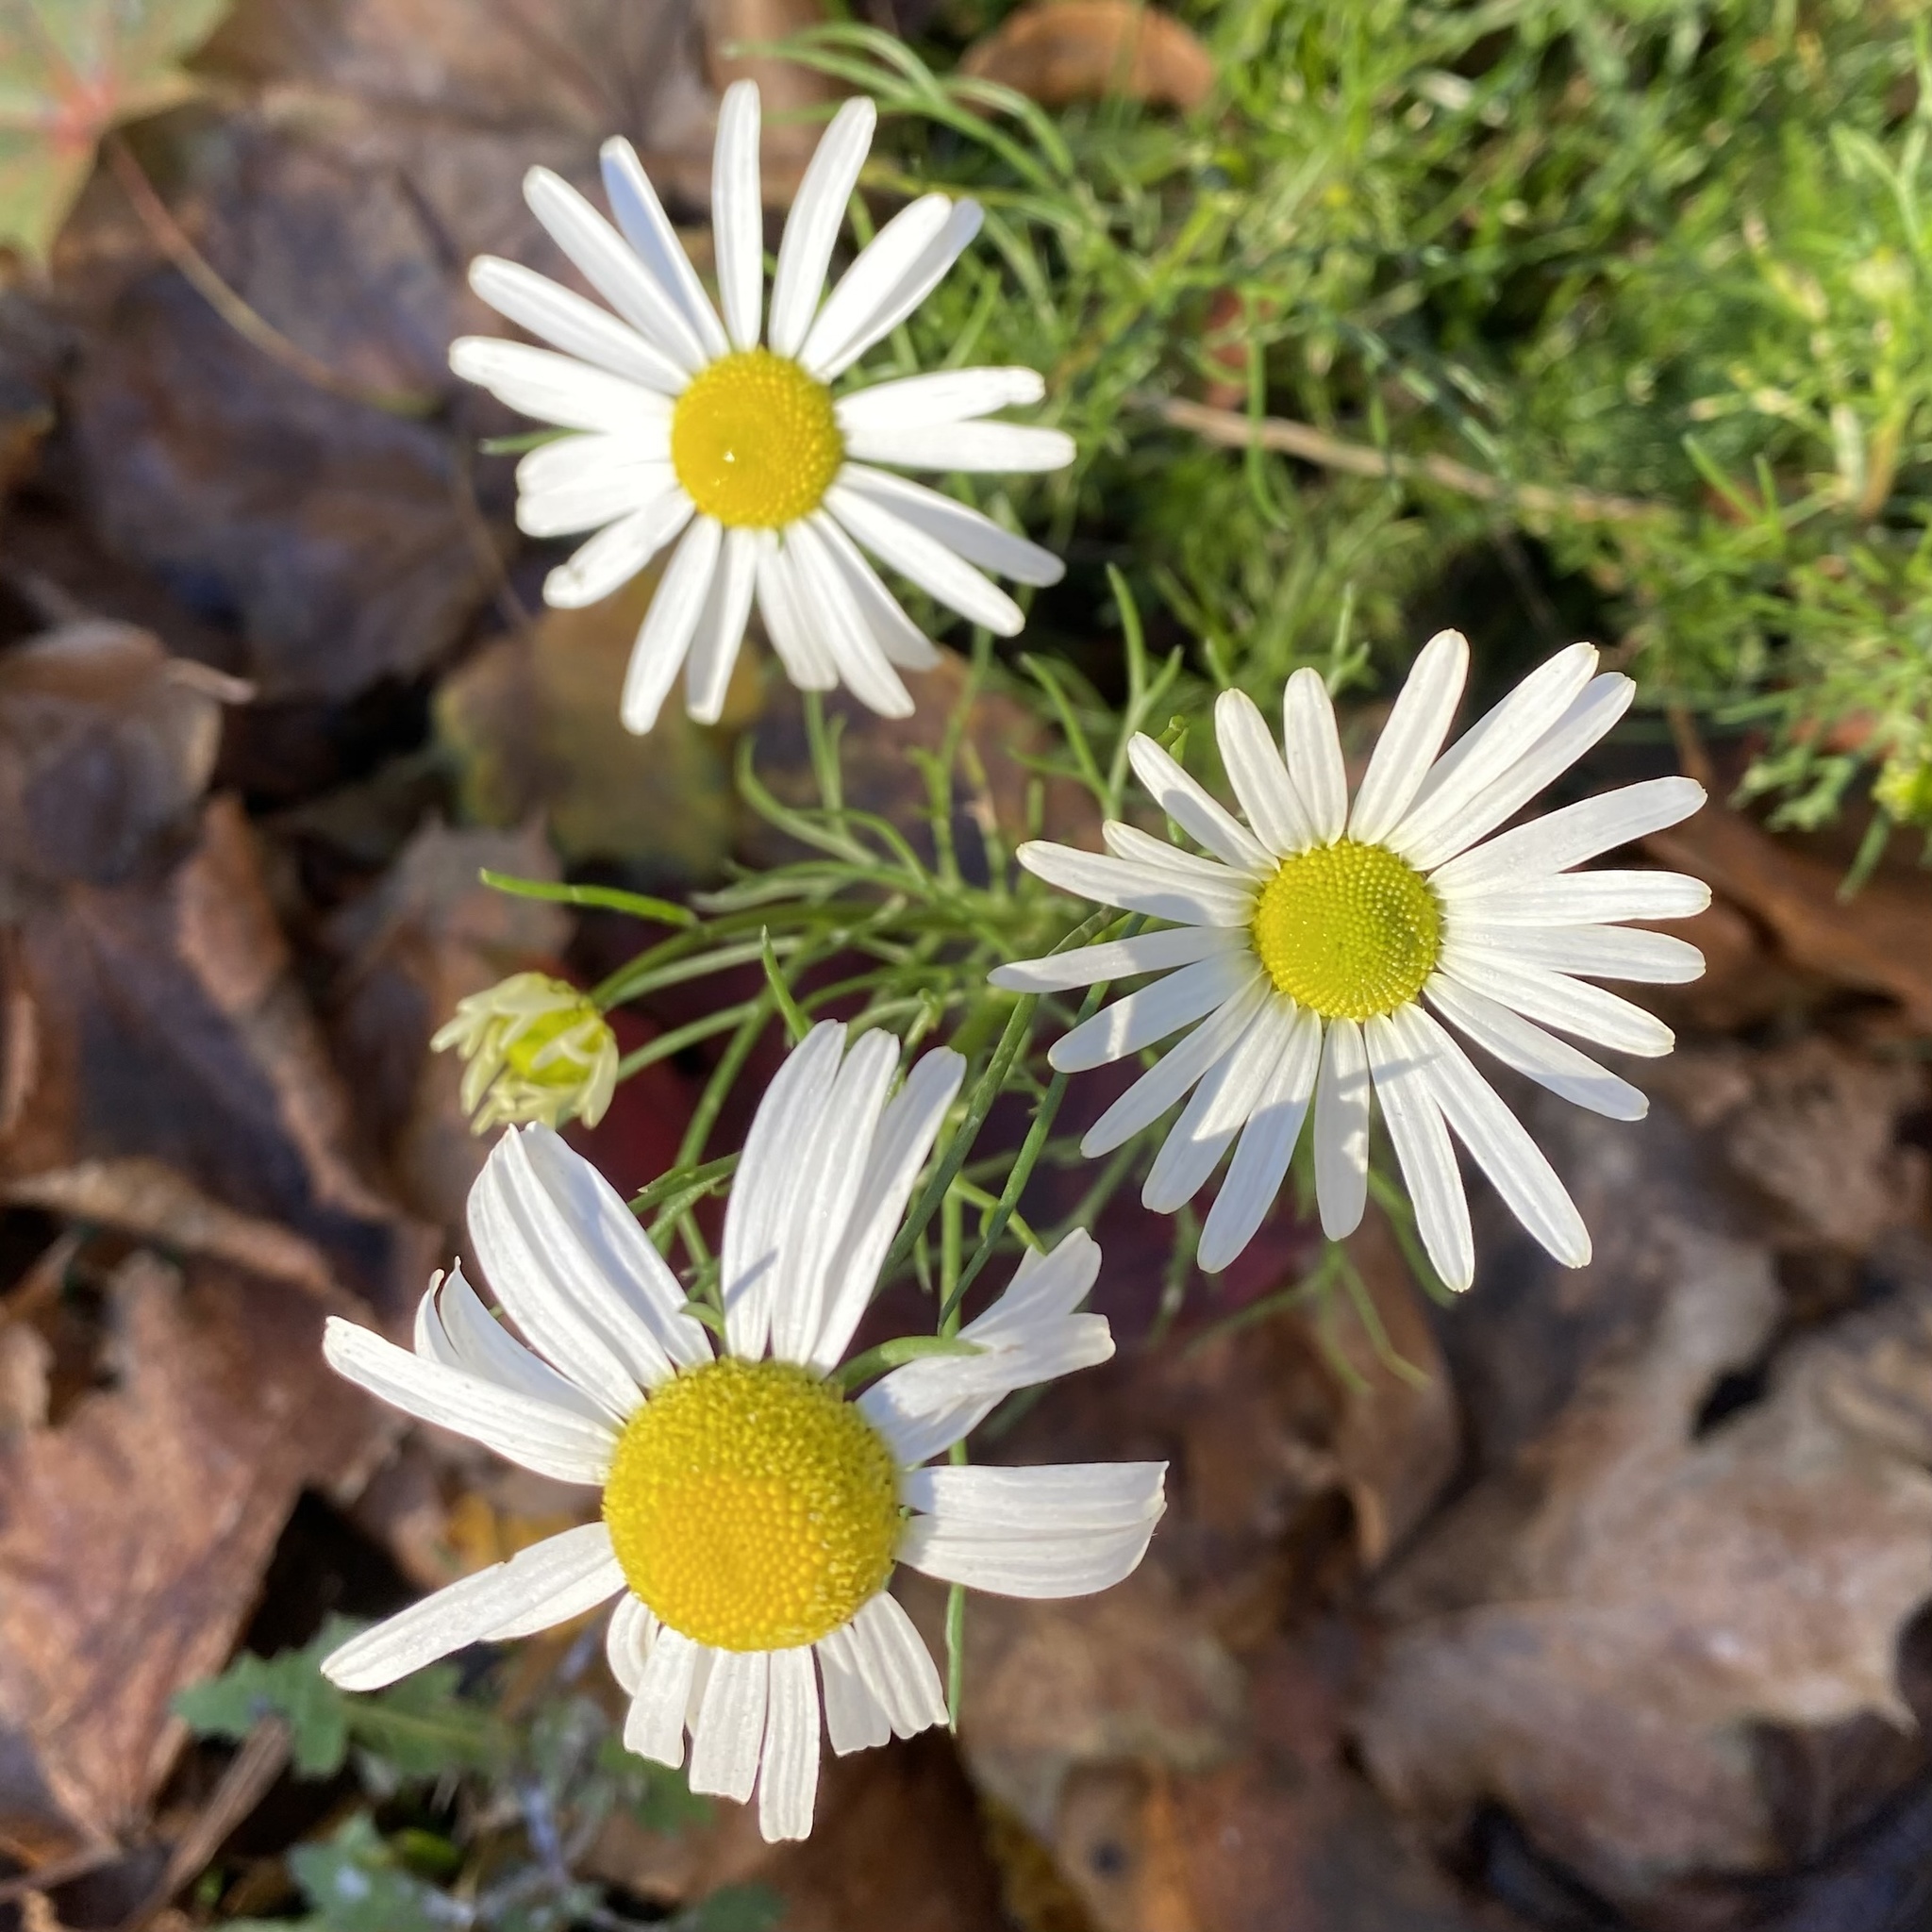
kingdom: Plantae
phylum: Tracheophyta
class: Magnoliopsida
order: Asterales
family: Asteraceae
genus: Tripleurospermum
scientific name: Tripleurospermum inodorum
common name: Scentless mayweed
